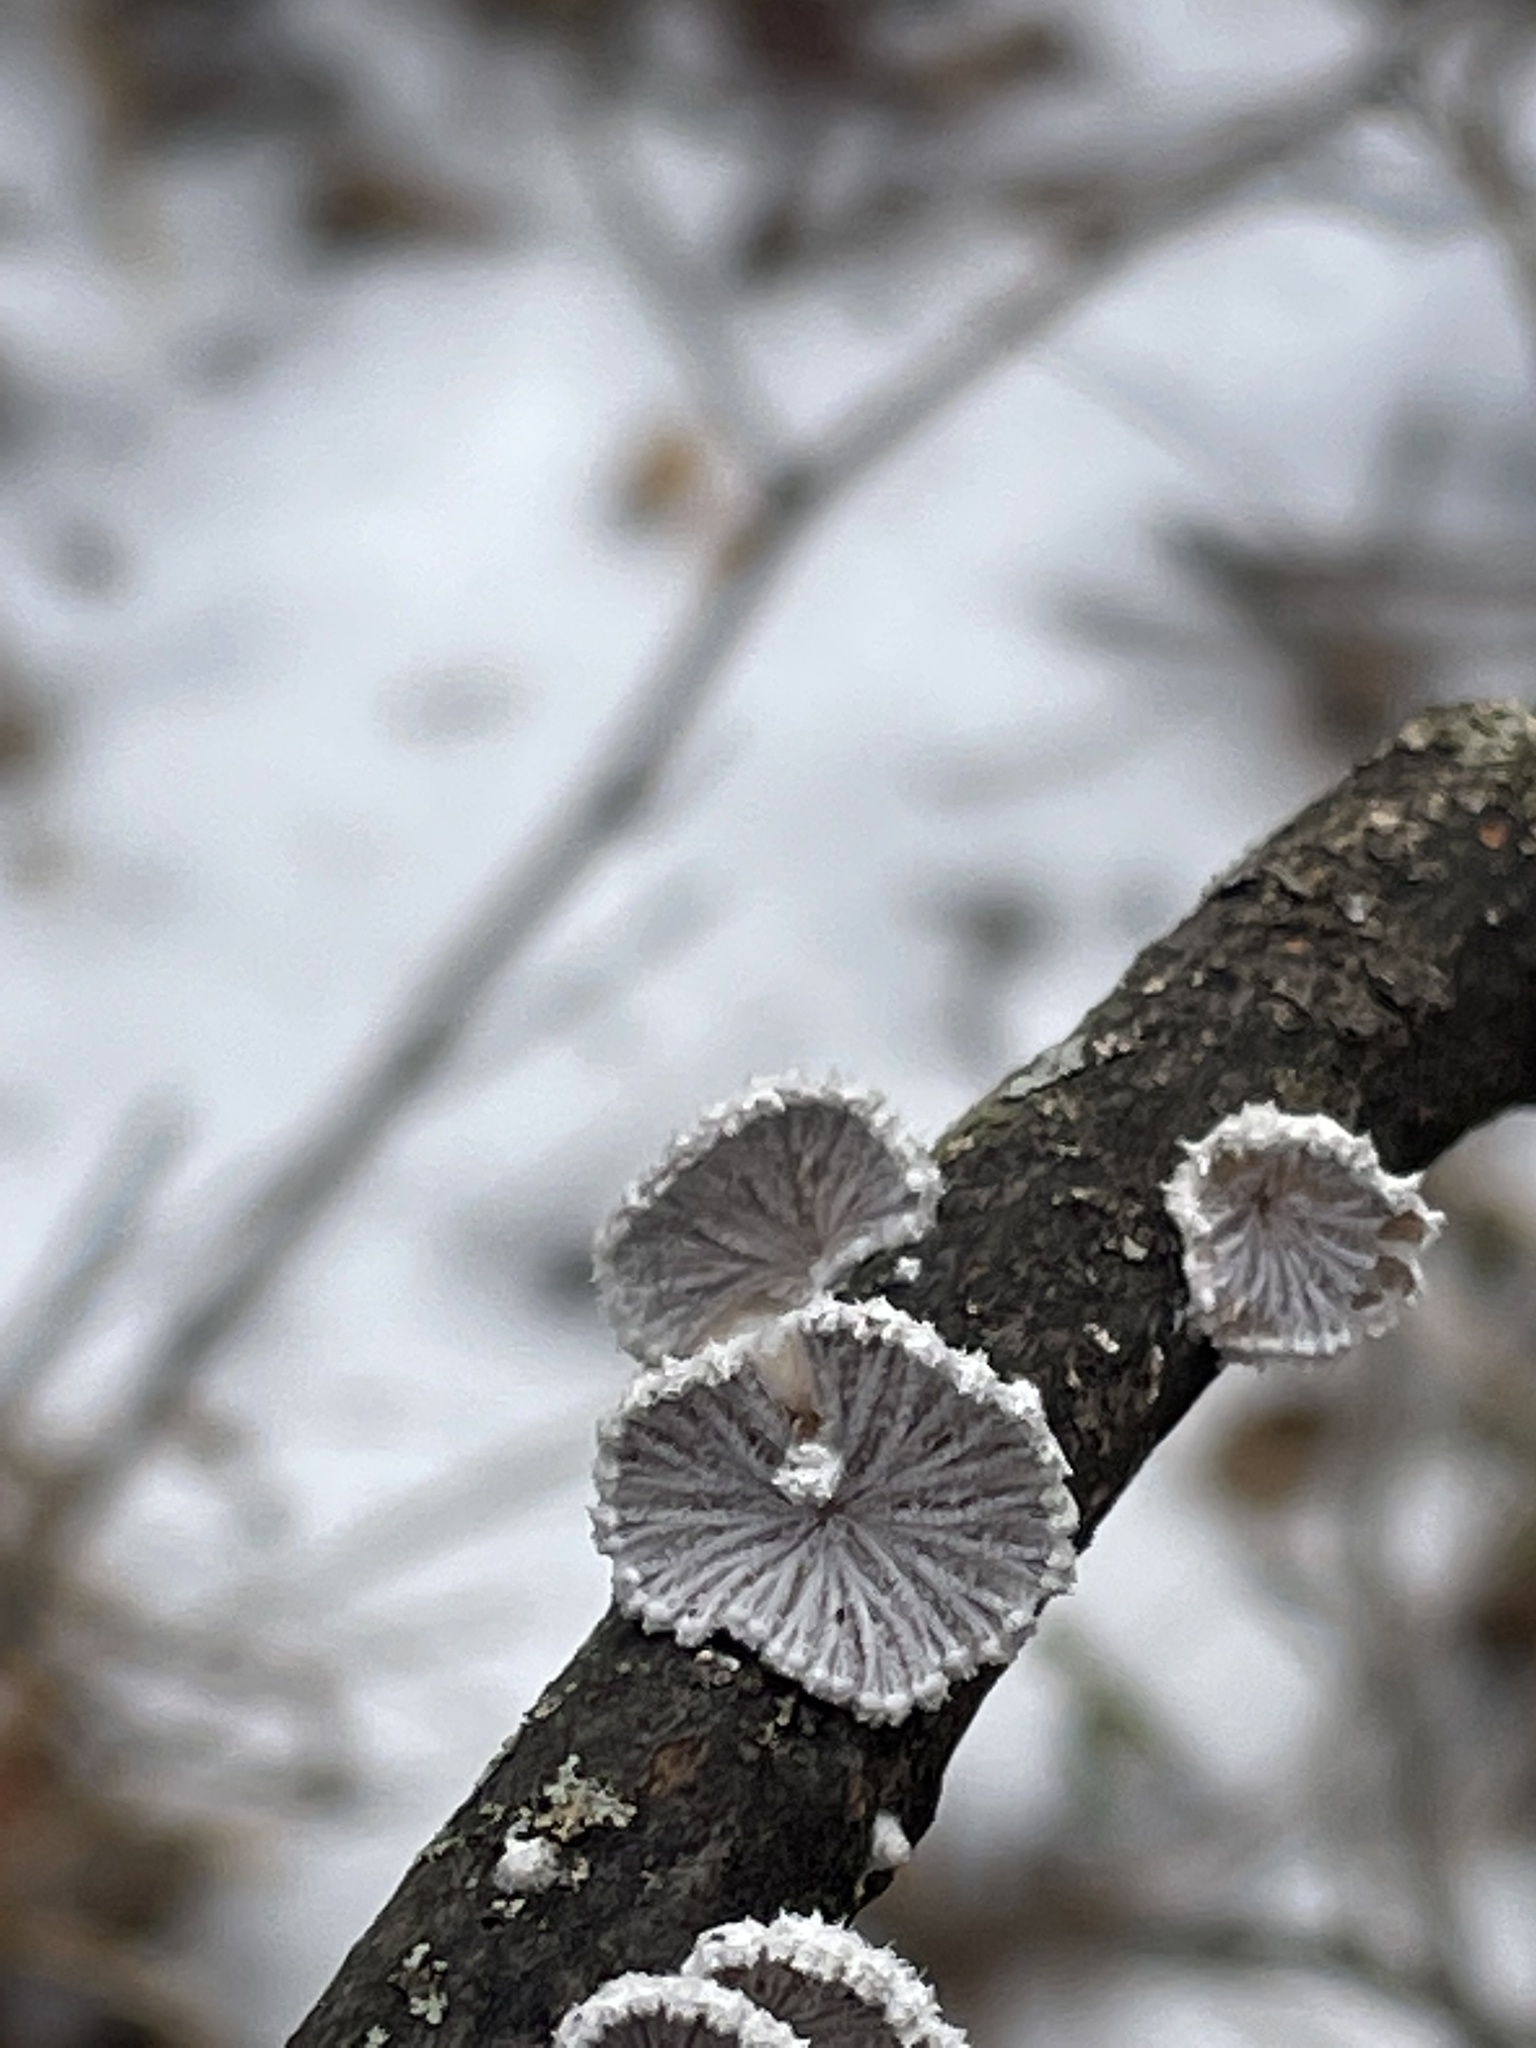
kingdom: Fungi
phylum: Basidiomycota
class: Agaricomycetes
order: Agaricales
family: Schizophyllaceae
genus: Schizophyllum
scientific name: Schizophyllum commune
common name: Common porecrust
